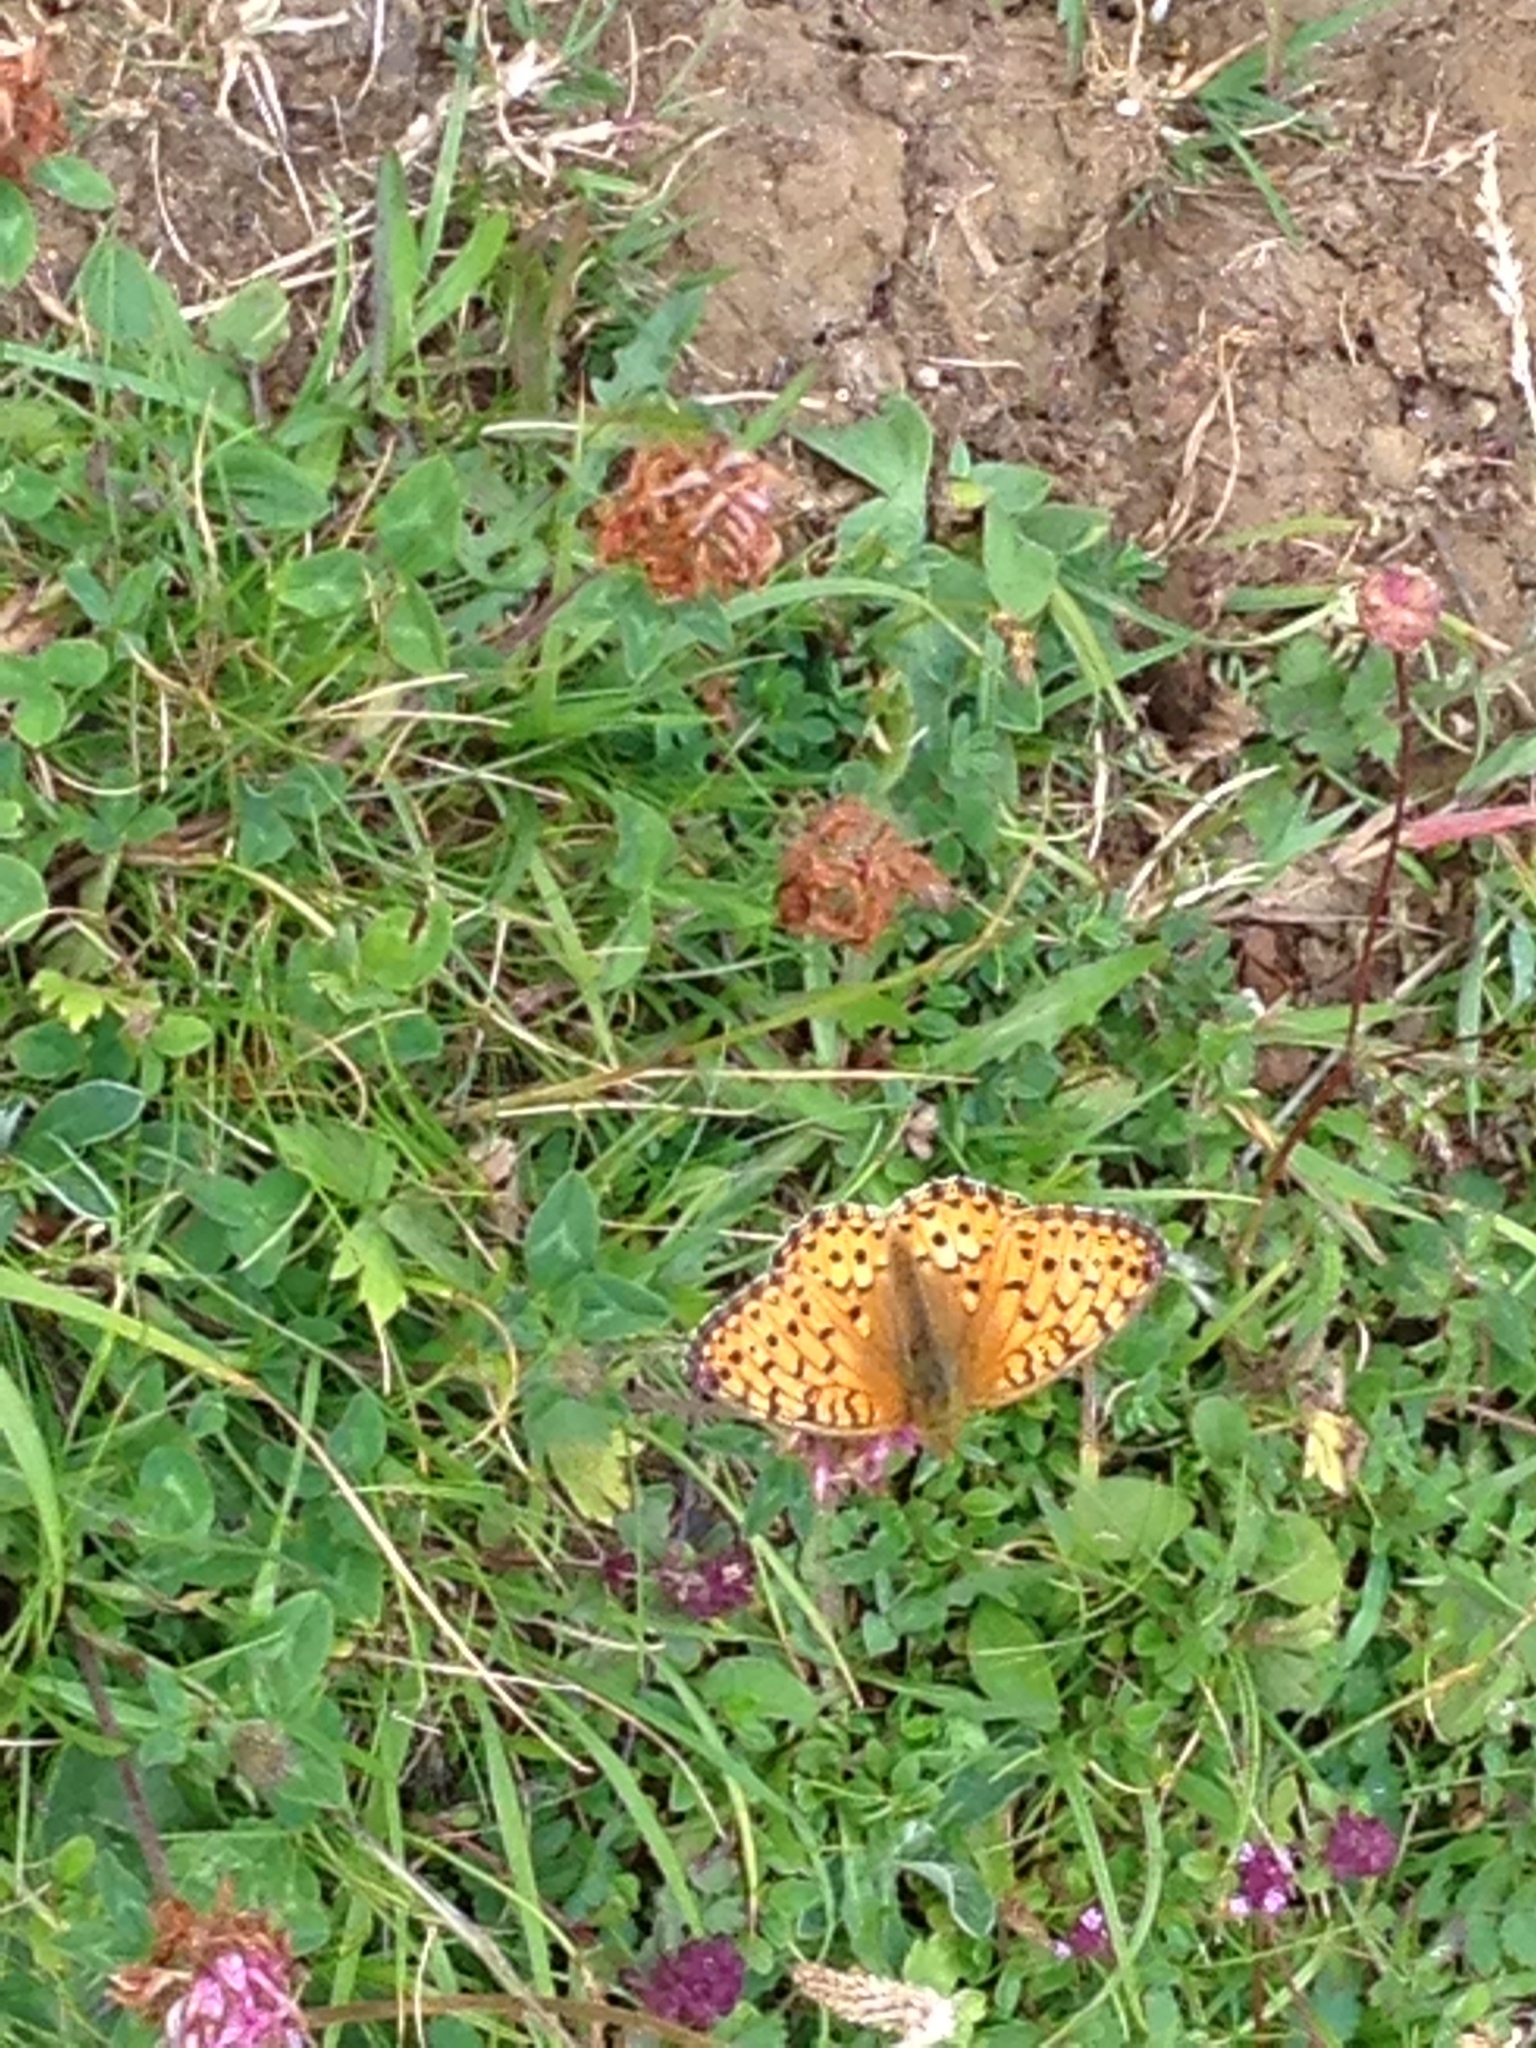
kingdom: Animalia
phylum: Arthropoda
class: Insecta
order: Lepidoptera
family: Nymphalidae
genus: Speyeria
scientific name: Speyeria aglaja
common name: Dark green fritillary
